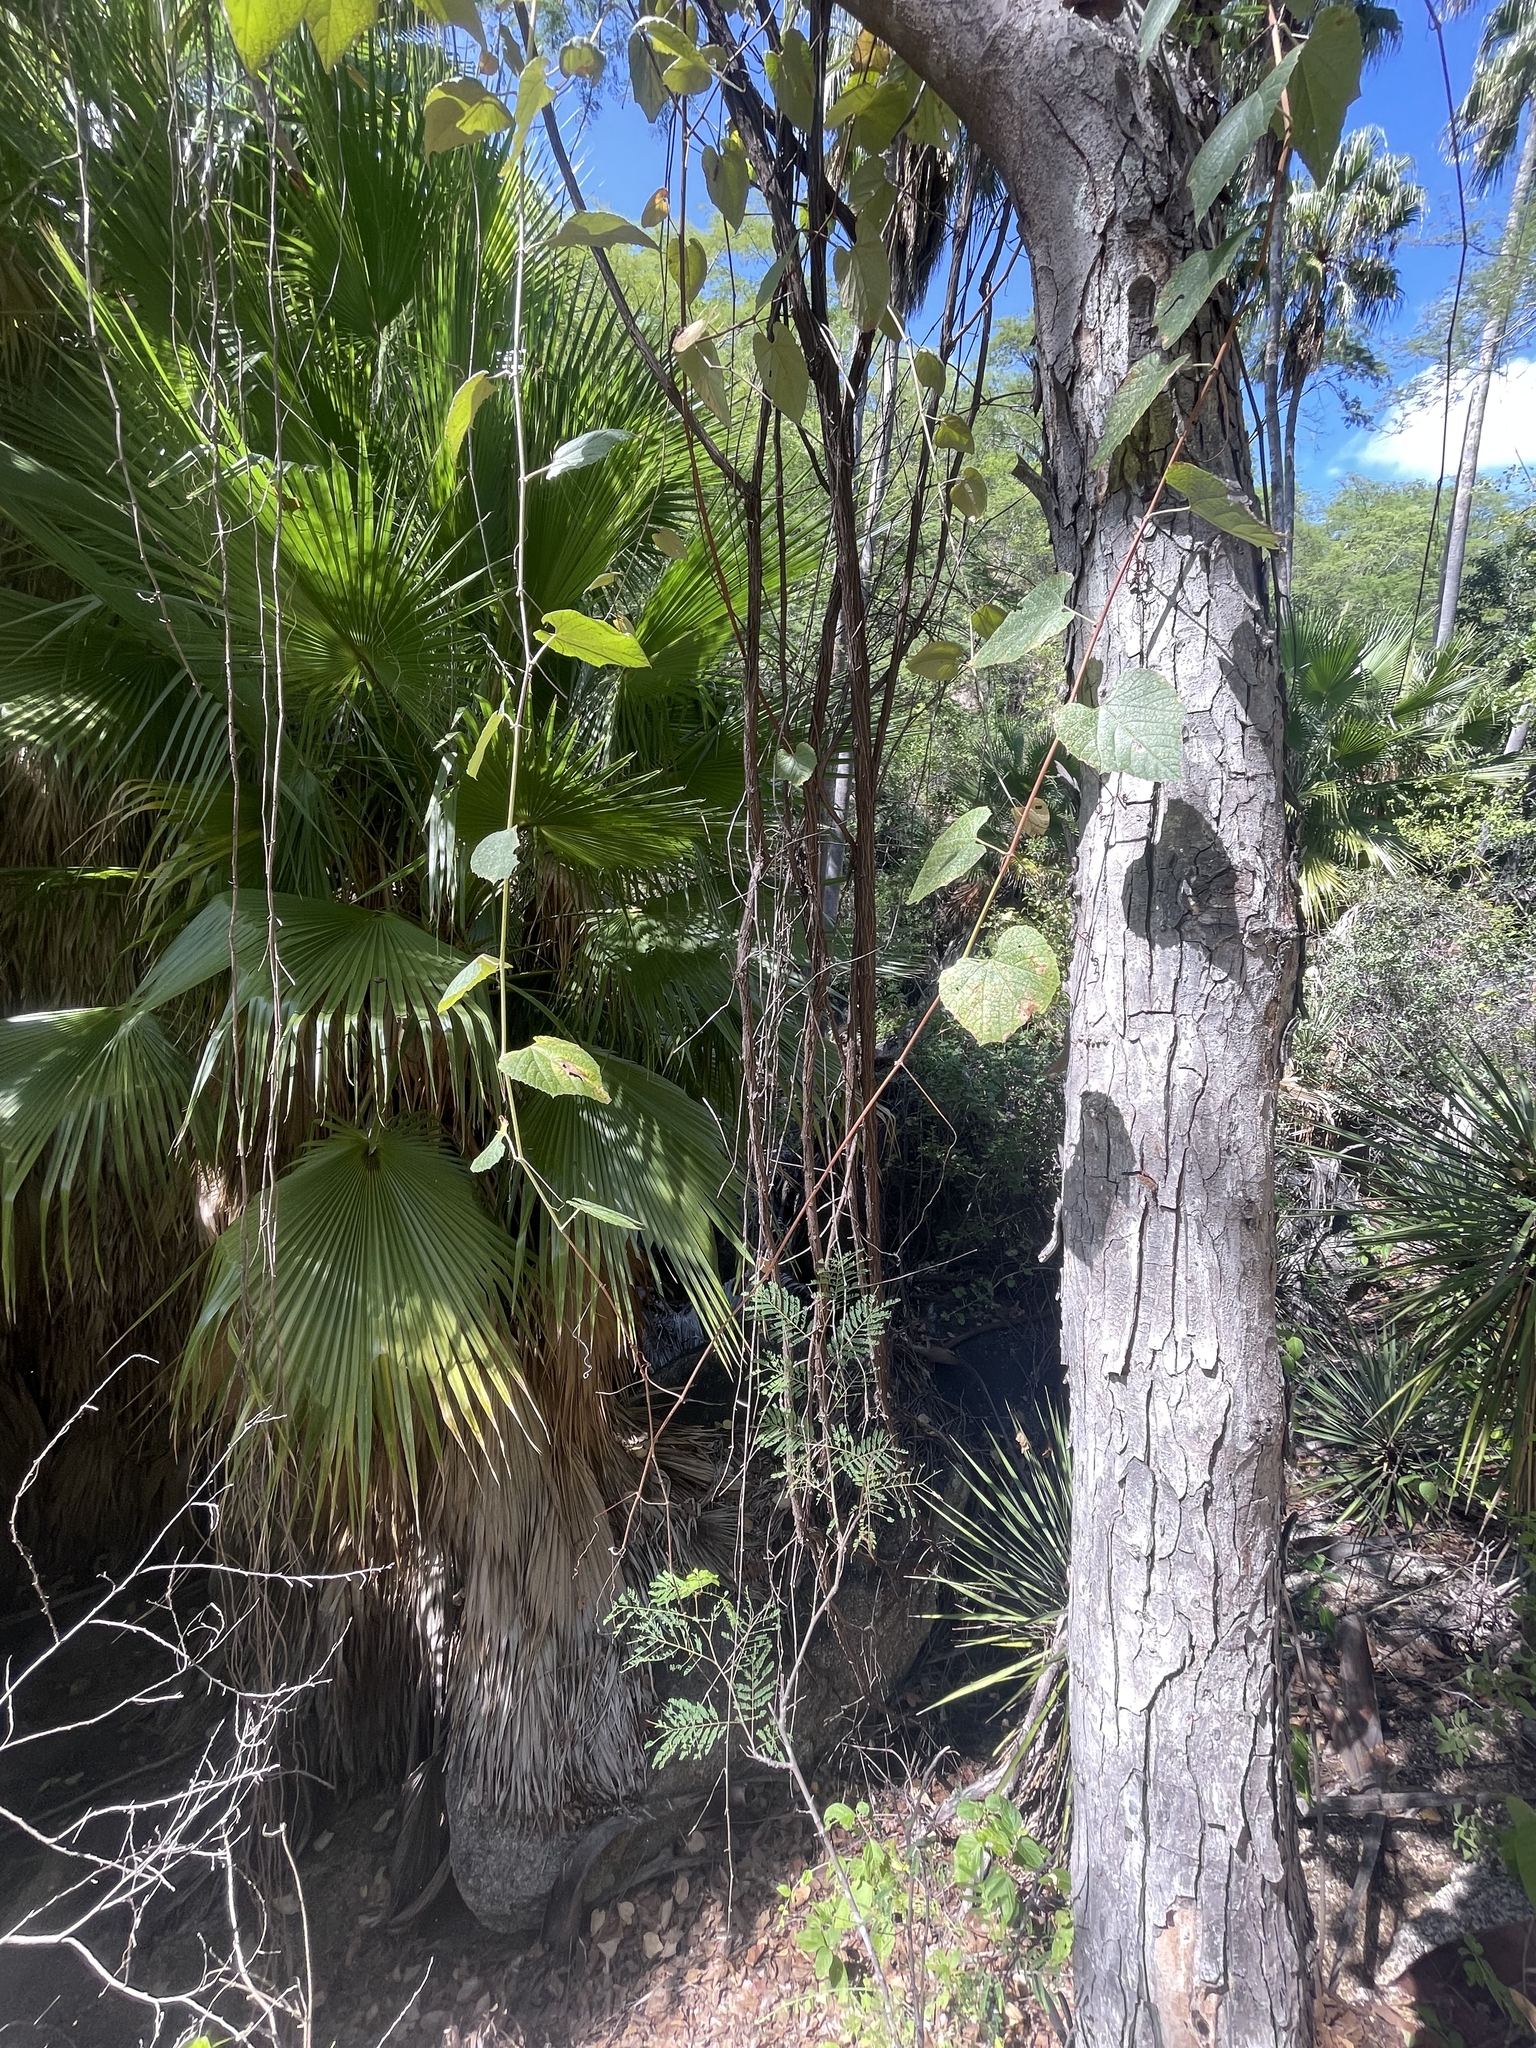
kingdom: Plantae
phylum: Tracheophyta
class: Magnoliopsida
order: Caryophyllales
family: Polygonaceae
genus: Antigonon
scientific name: Antigonon leptopus
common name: Coral vine
